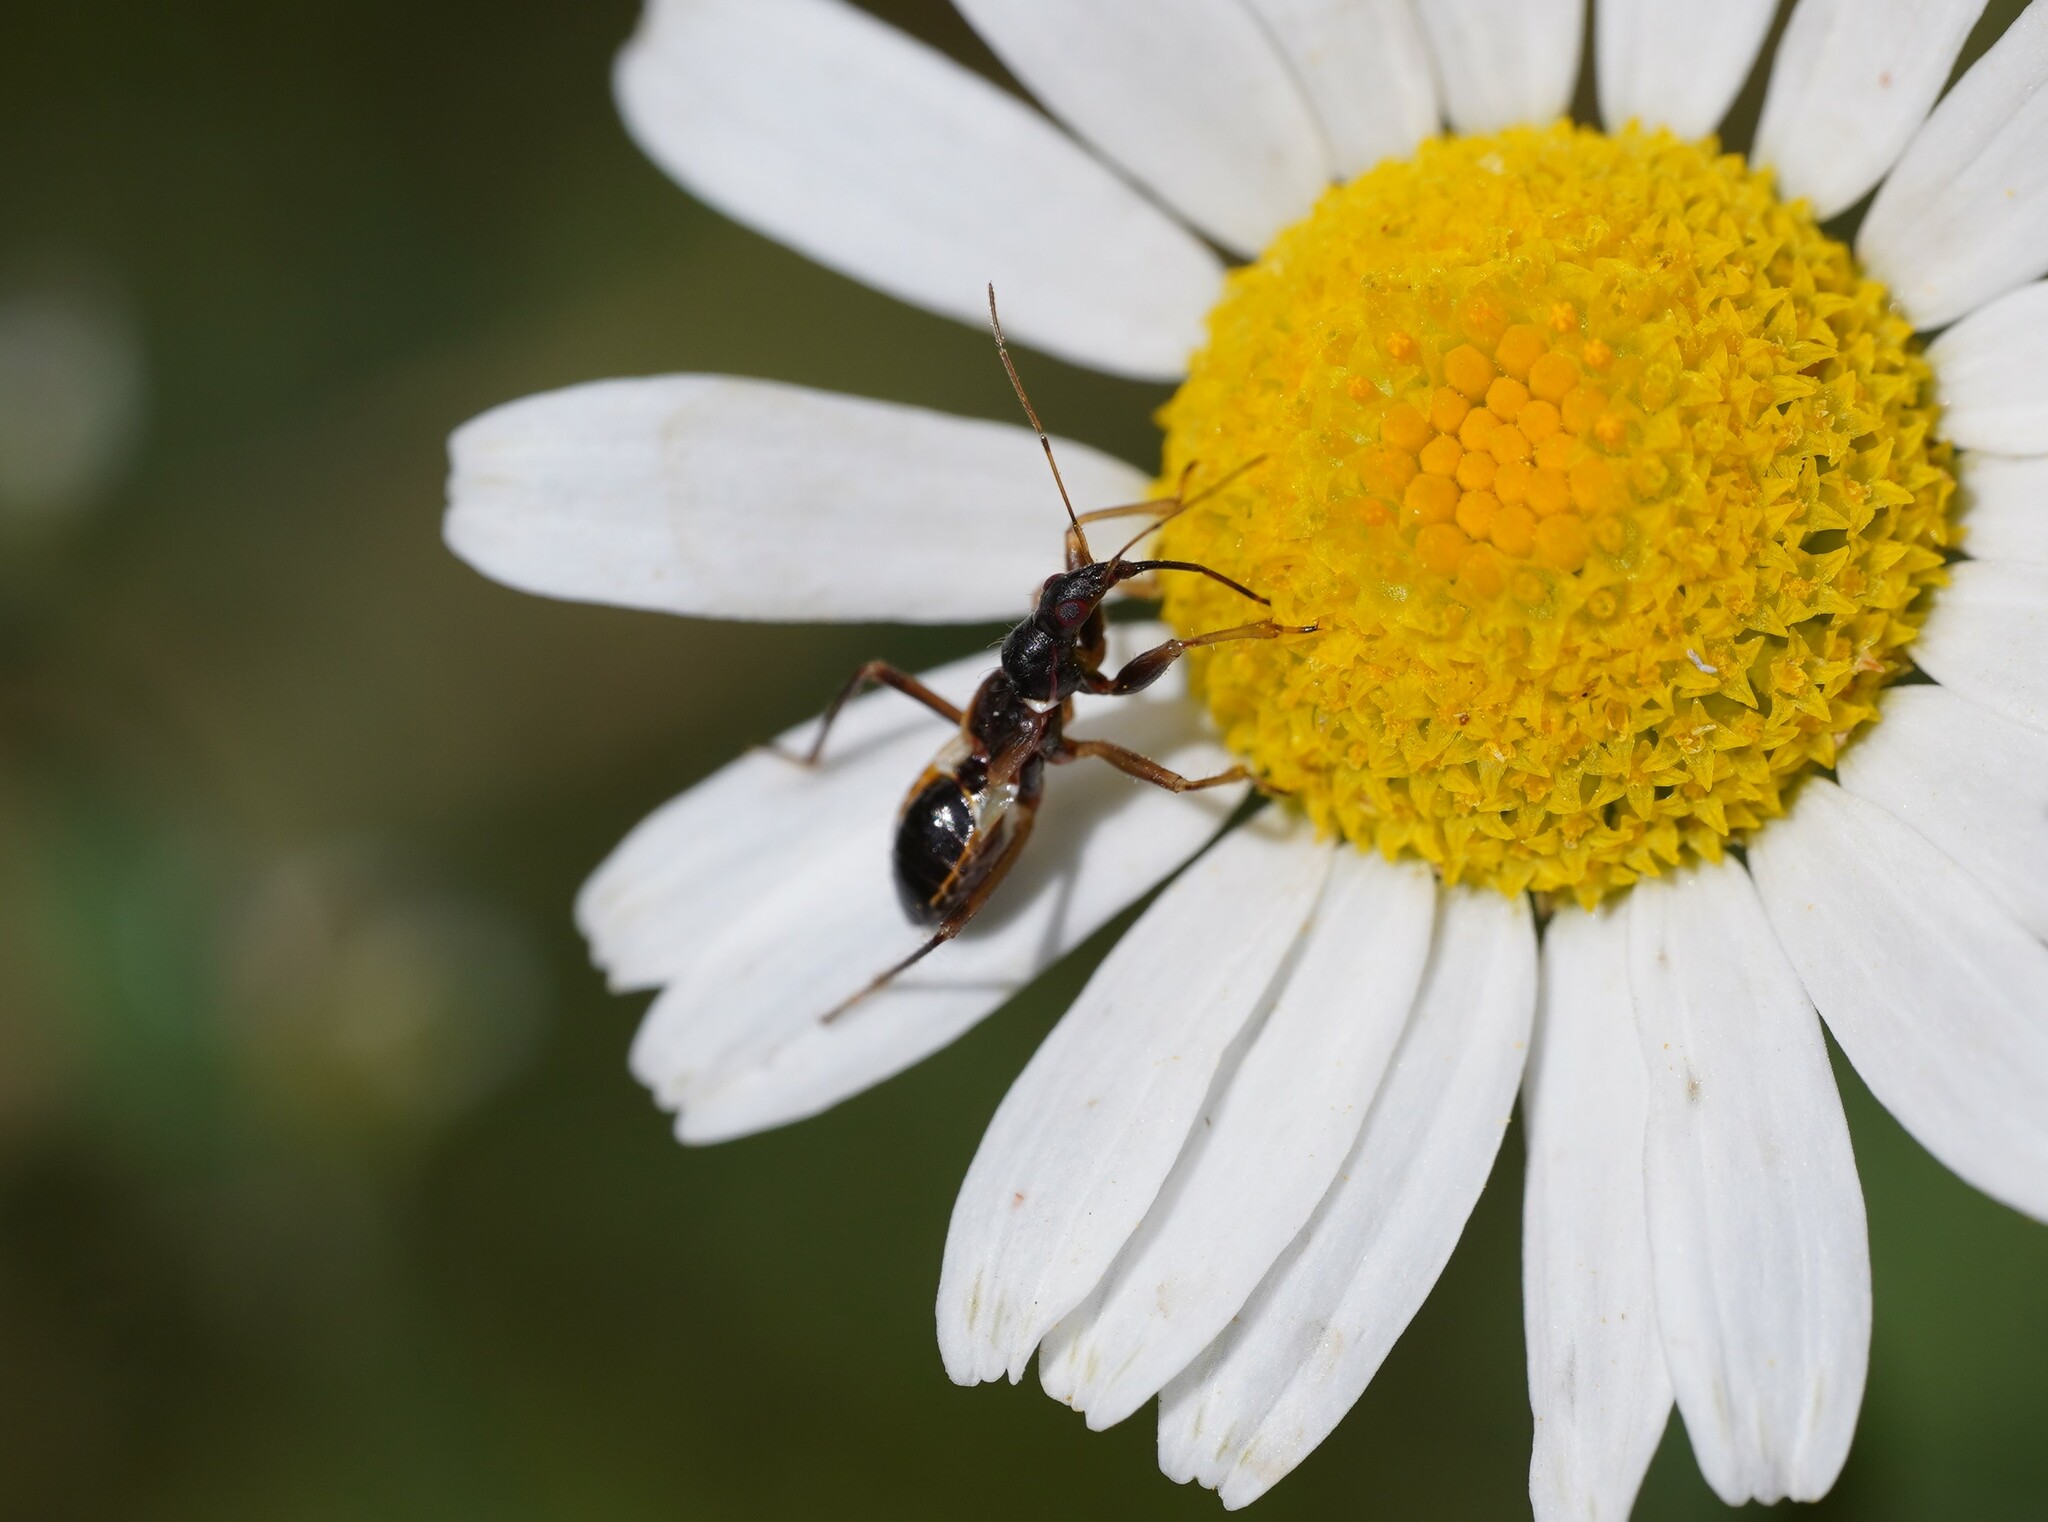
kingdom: Animalia
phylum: Arthropoda
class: Insecta
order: Hemiptera
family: Nabidae
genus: Himacerus
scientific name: Himacerus mirmicoides
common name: Ant damsel bug
